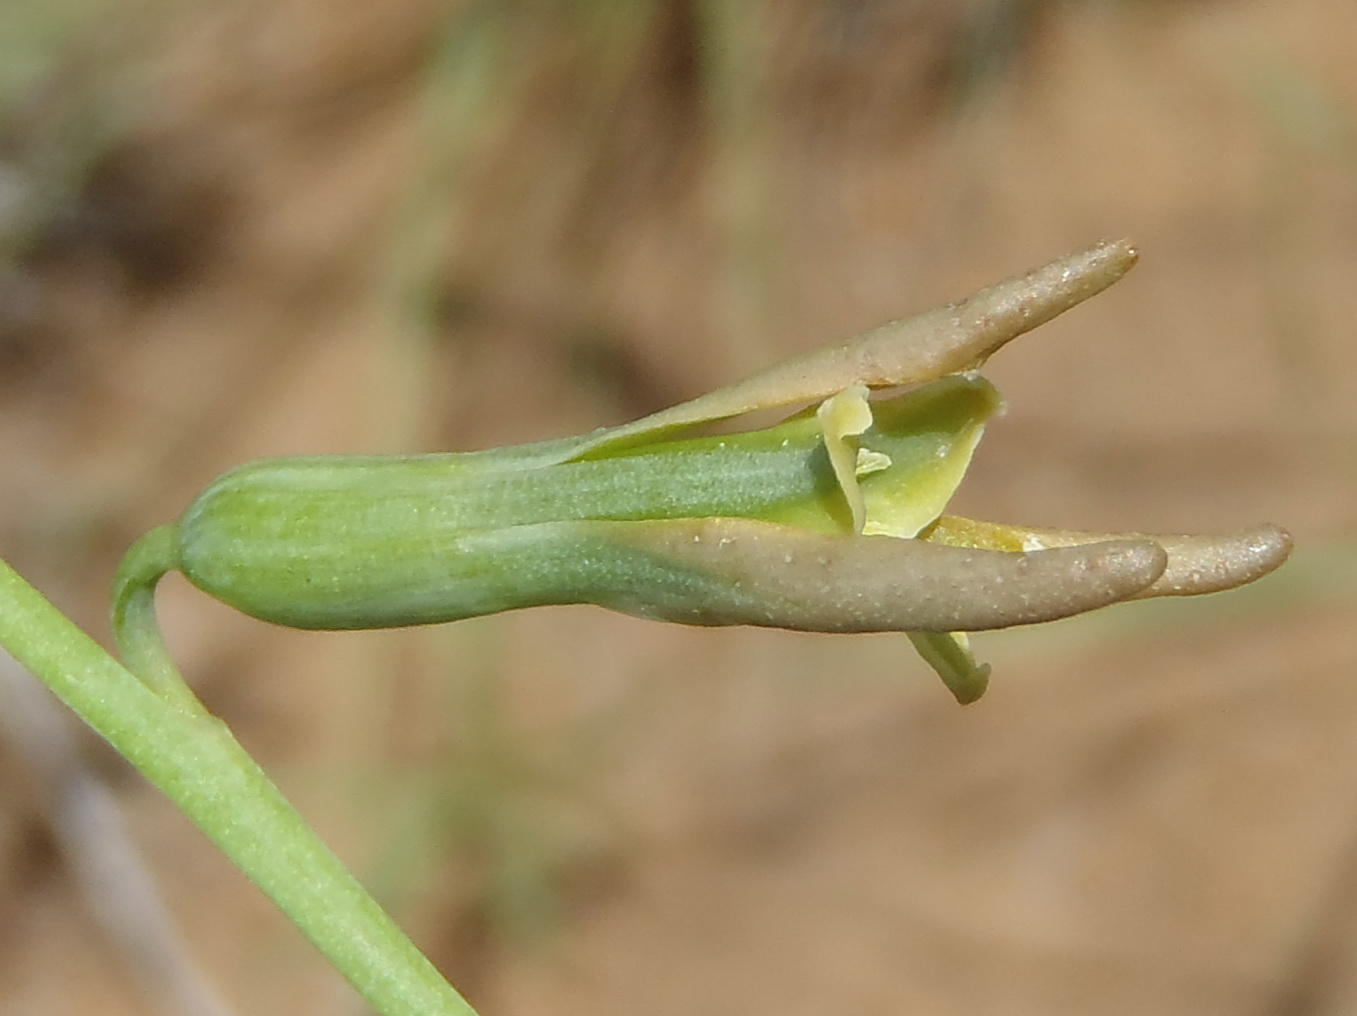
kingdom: Plantae
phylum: Tracheophyta
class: Liliopsida
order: Asparagales
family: Asparagaceae
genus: Dipcadi
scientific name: Dipcadi marlothii
